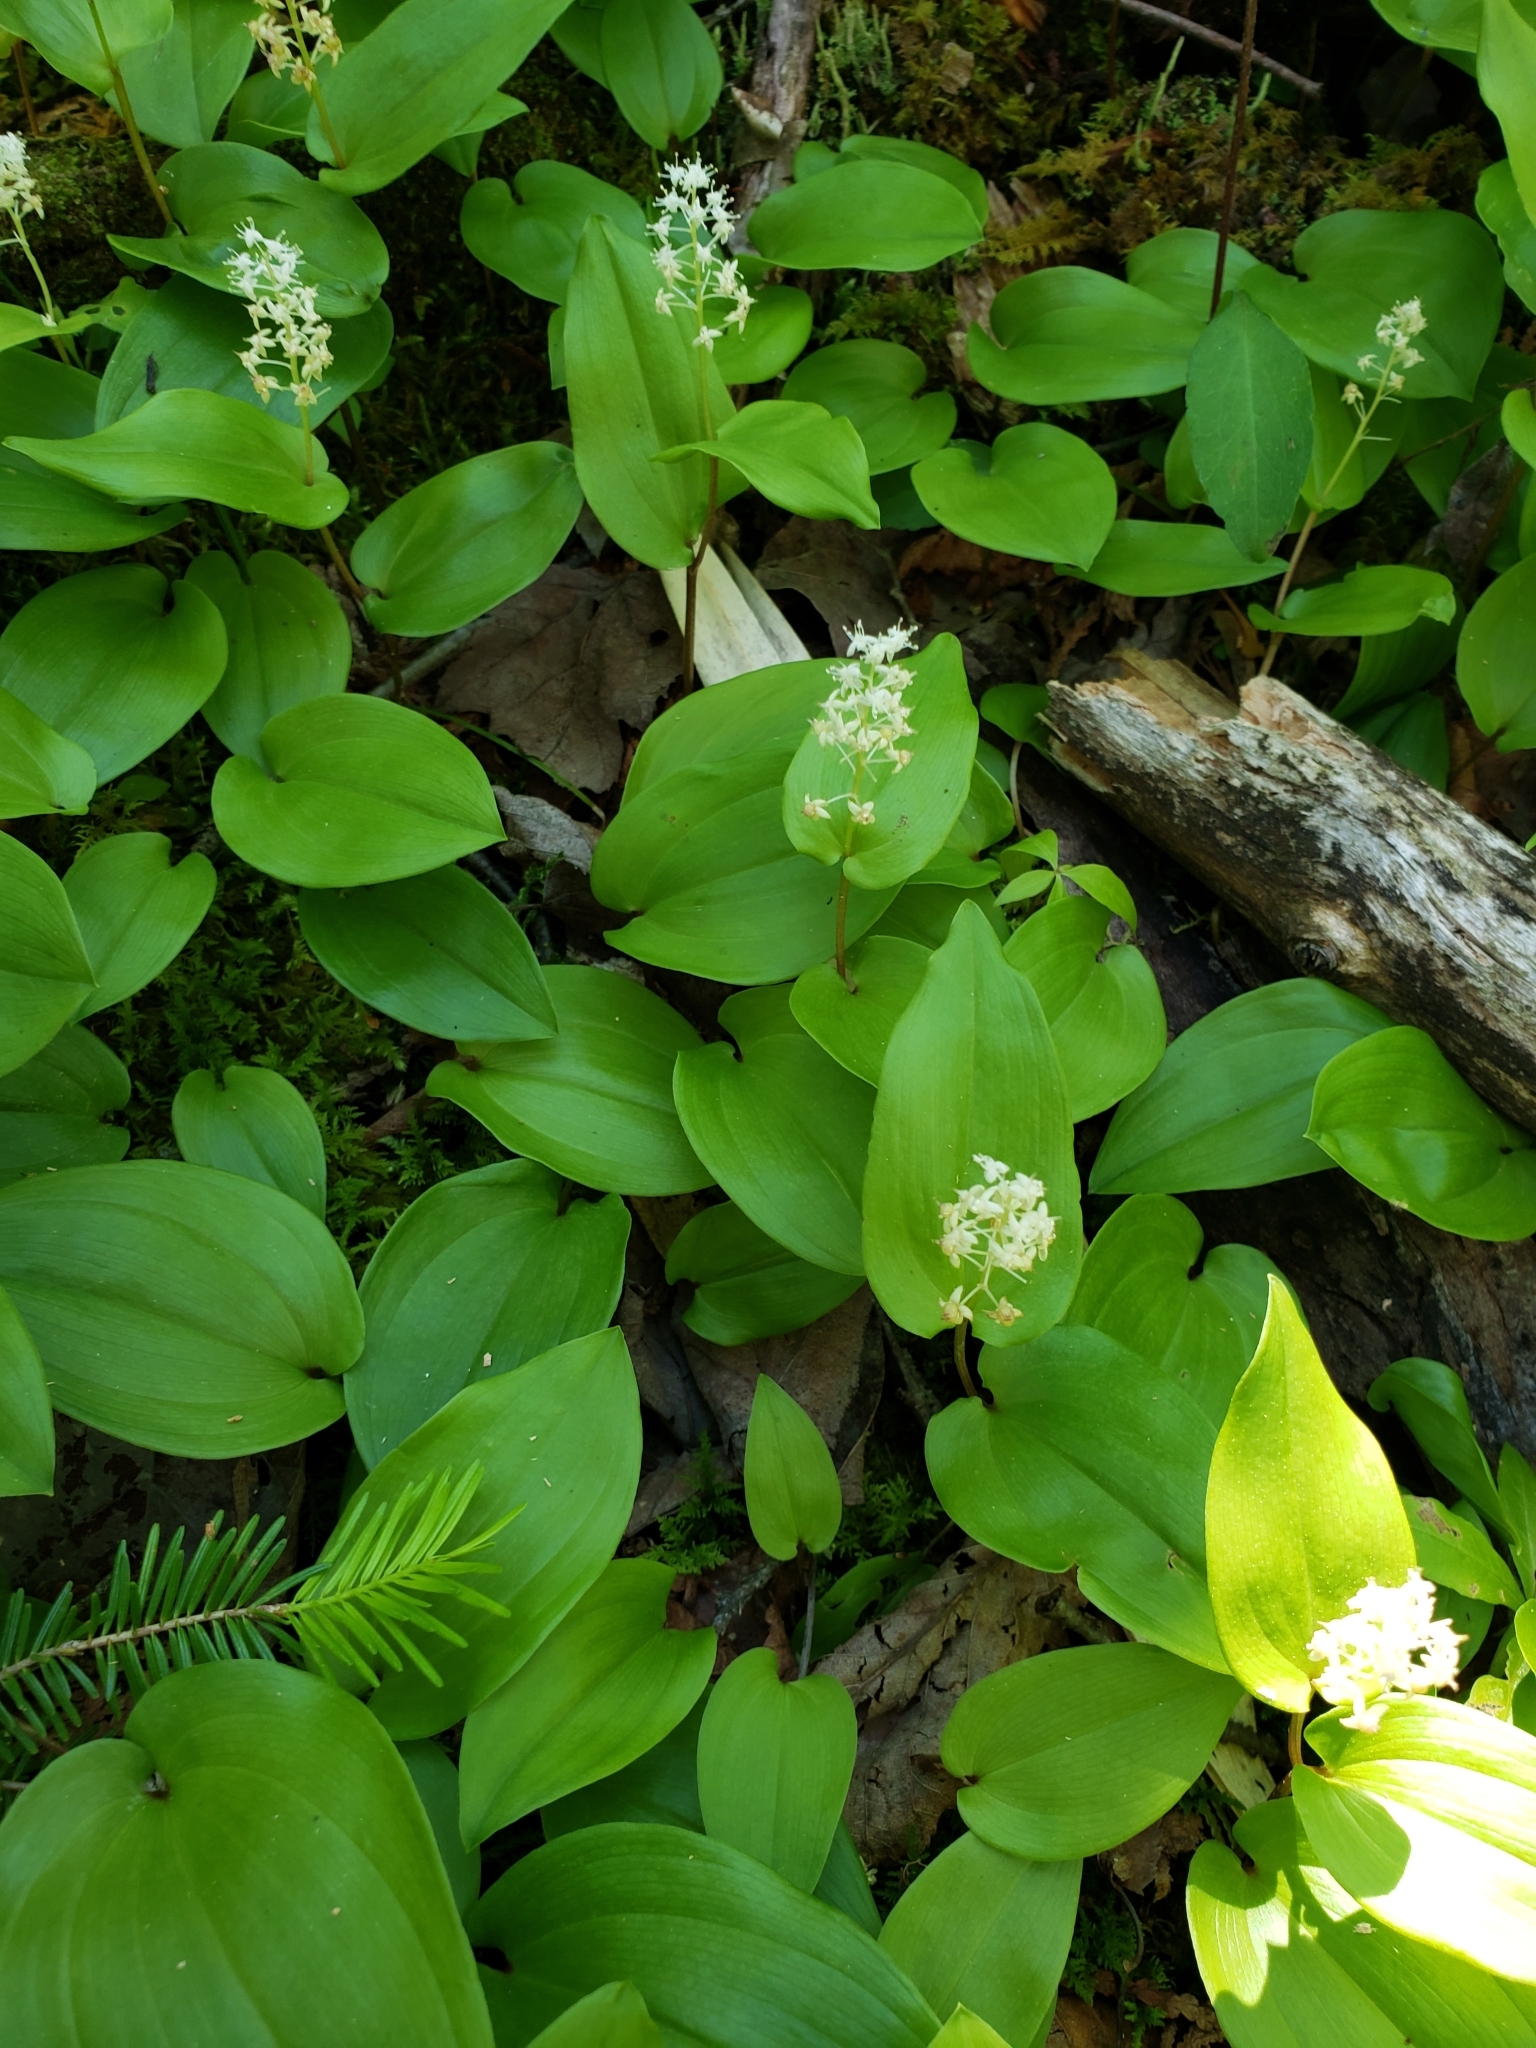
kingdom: Plantae
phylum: Tracheophyta
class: Liliopsida
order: Asparagales
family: Asparagaceae
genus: Maianthemum
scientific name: Maianthemum canadense
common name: False lily-of-the-valley
